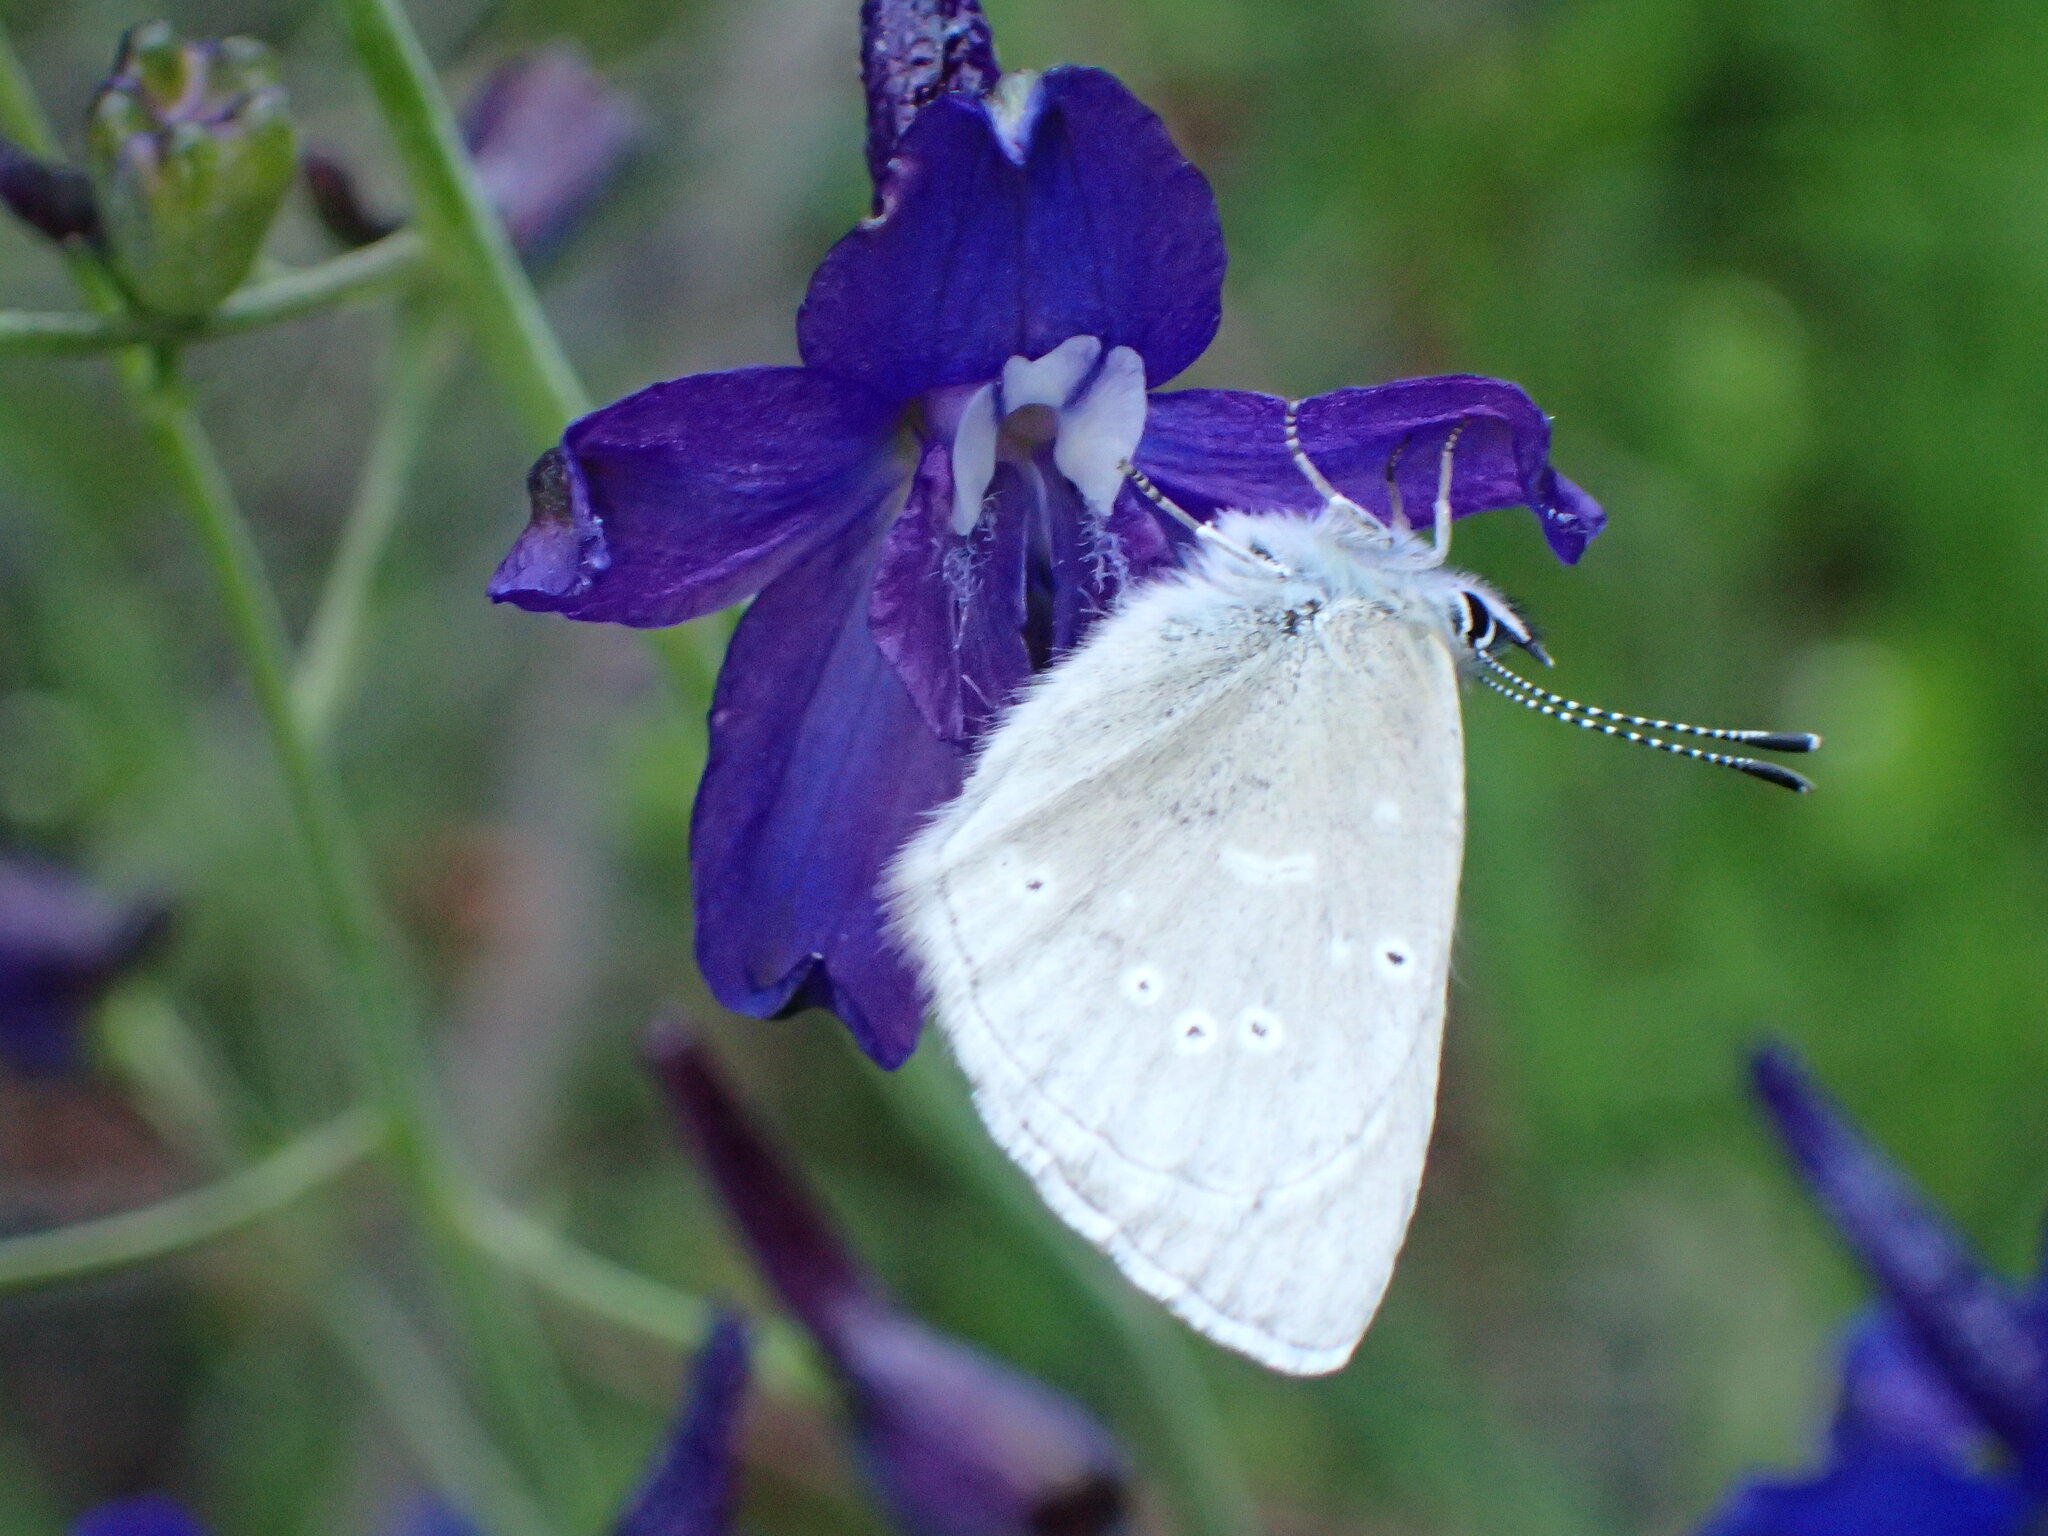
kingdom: Animalia
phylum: Arthropoda
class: Insecta
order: Lepidoptera
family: Lycaenidae
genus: Glaucopsyche
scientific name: Glaucopsyche lygdamus
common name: Silvery blue
